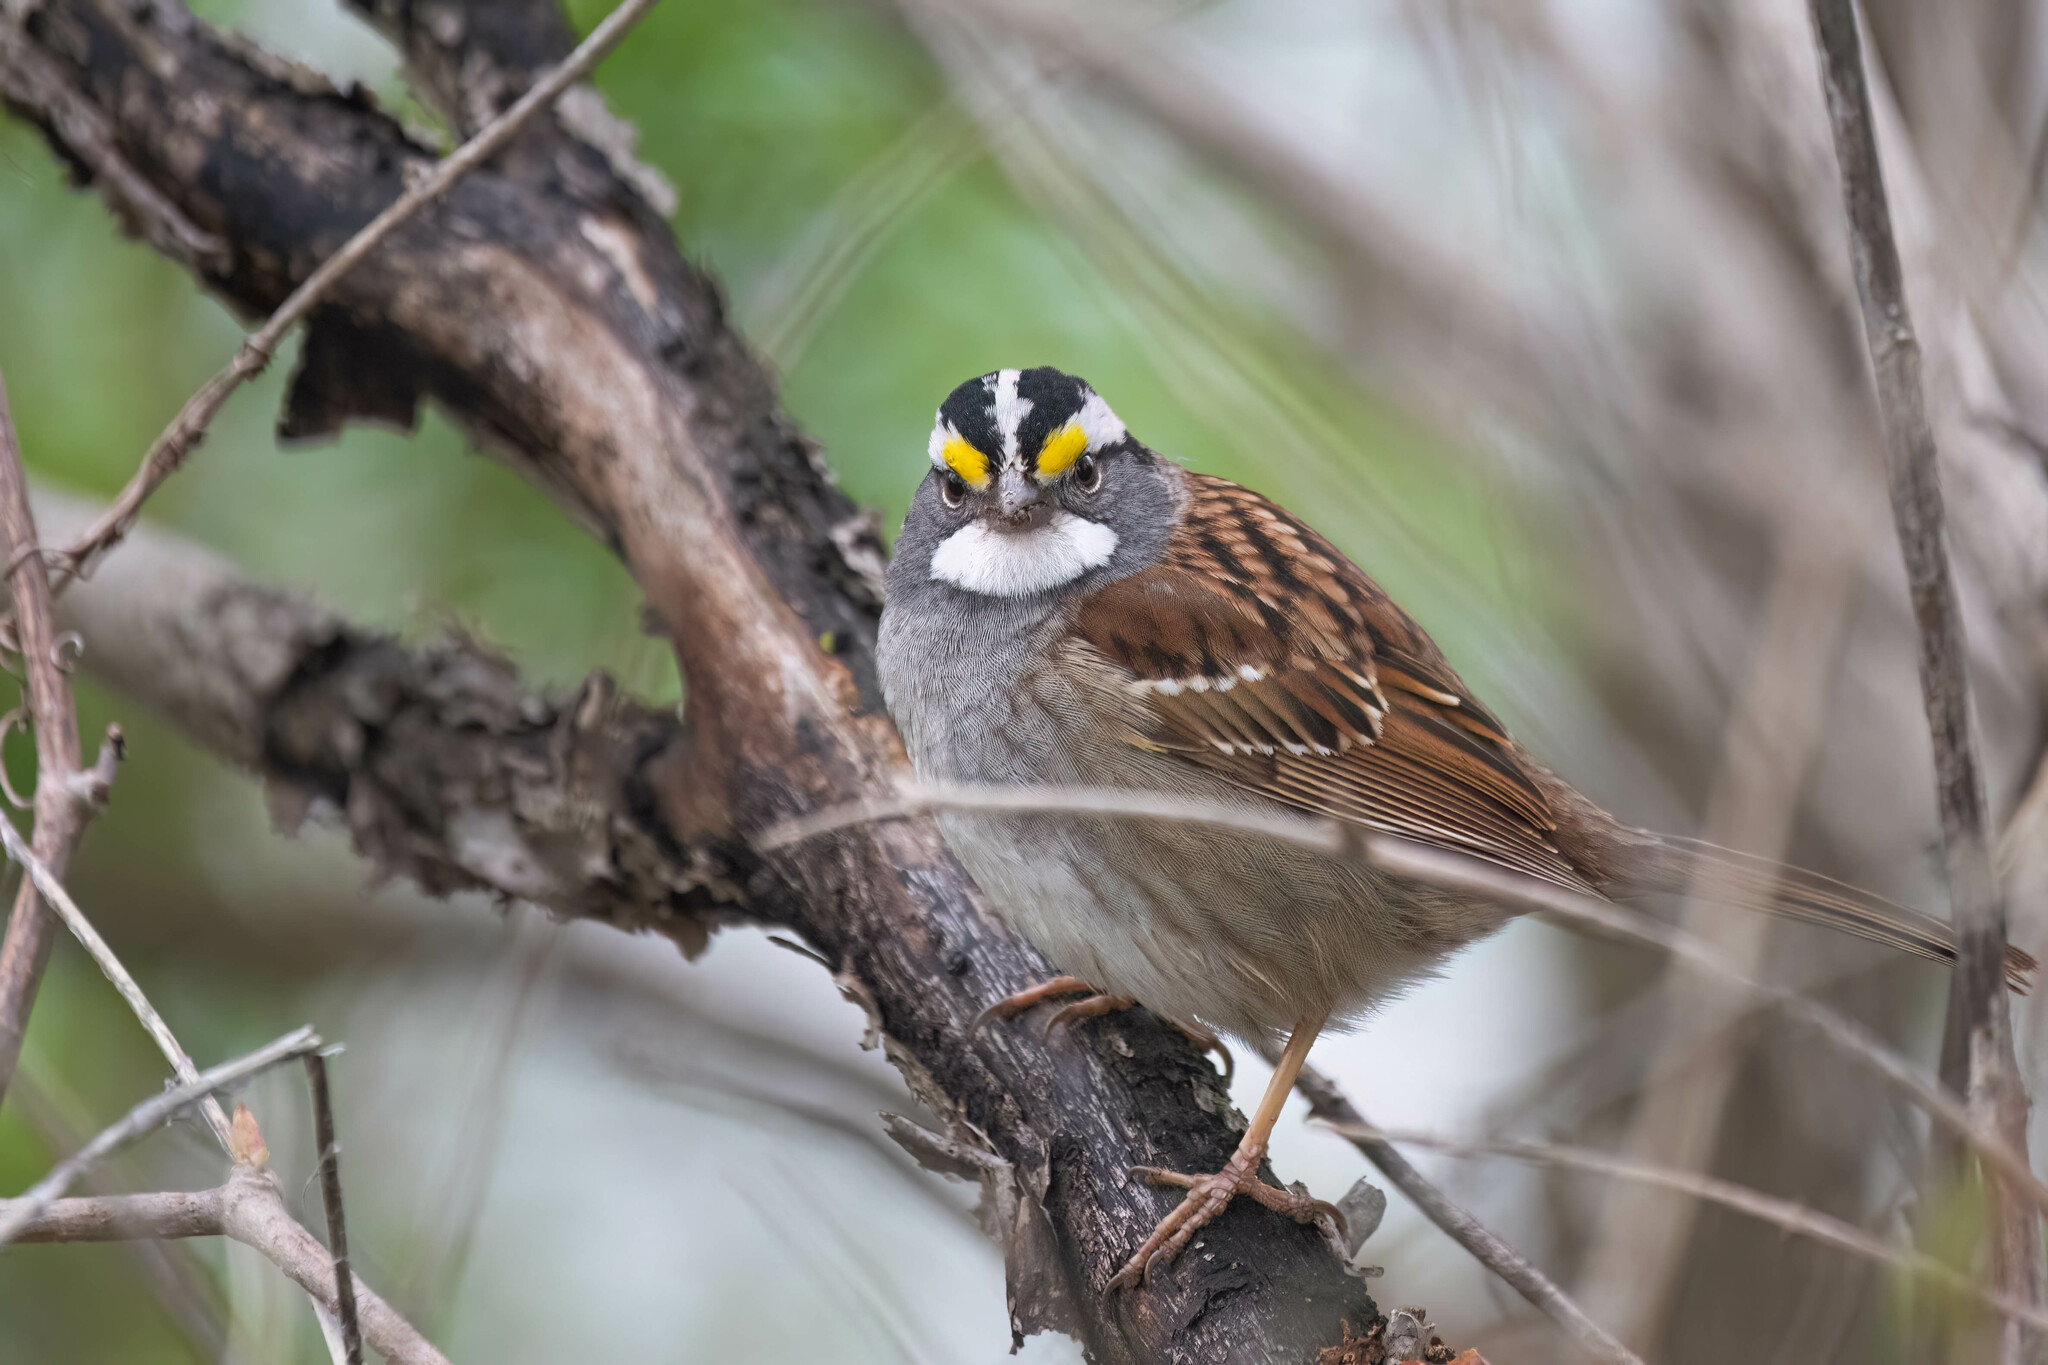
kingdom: Animalia
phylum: Chordata
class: Aves
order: Passeriformes
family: Passerellidae
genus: Zonotrichia
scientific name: Zonotrichia albicollis
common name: White-throated sparrow
